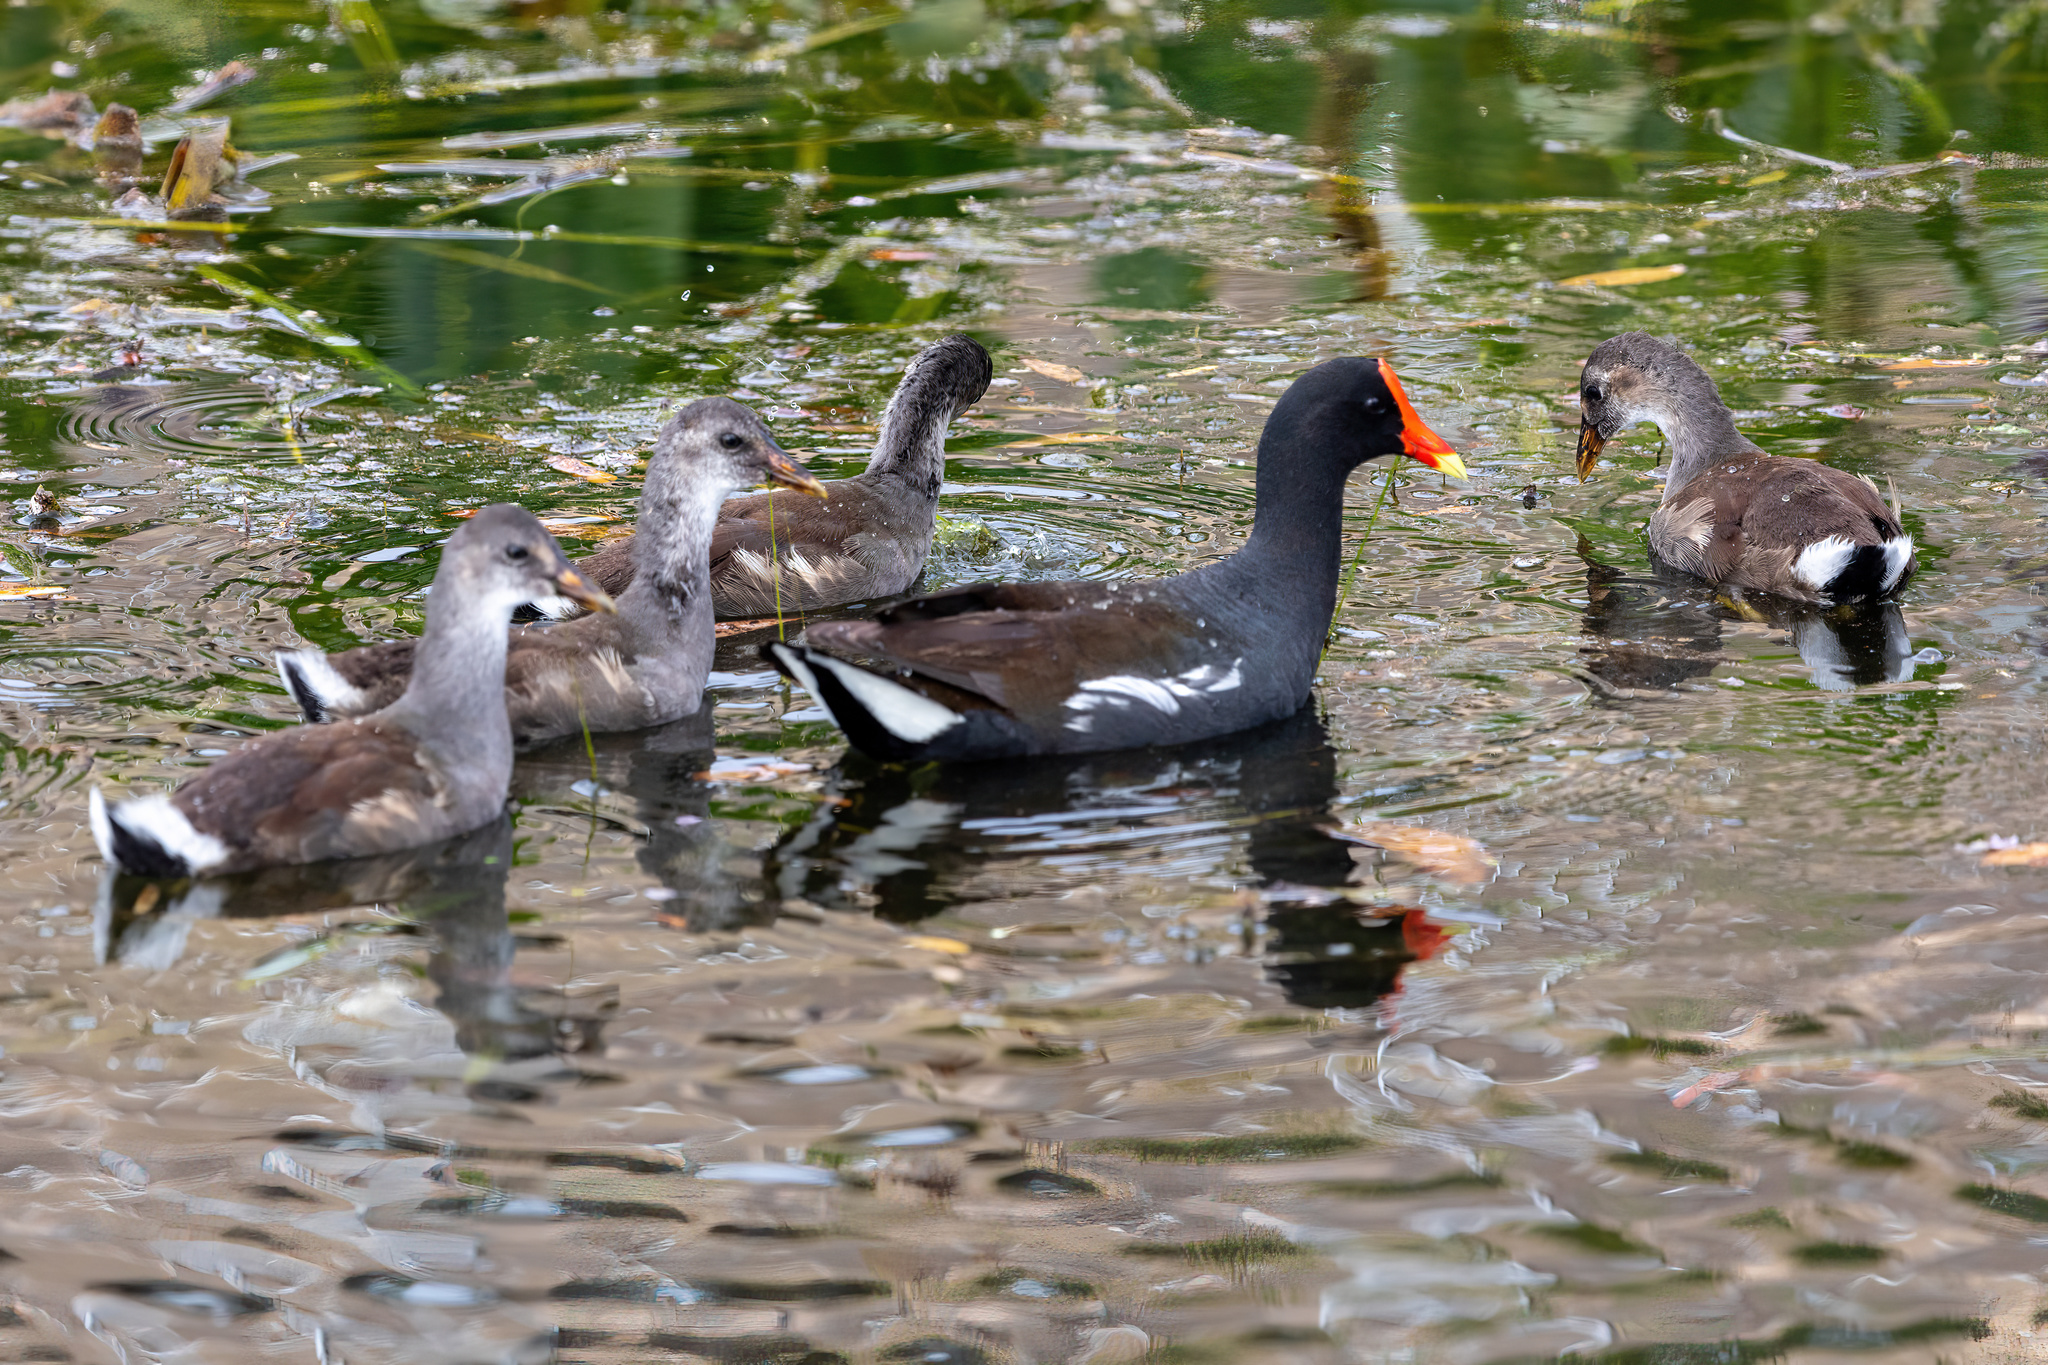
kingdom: Animalia
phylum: Chordata
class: Aves
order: Gruiformes
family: Rallidae
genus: Gallinula
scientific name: Gallinula chloropus
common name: Common moorhen
